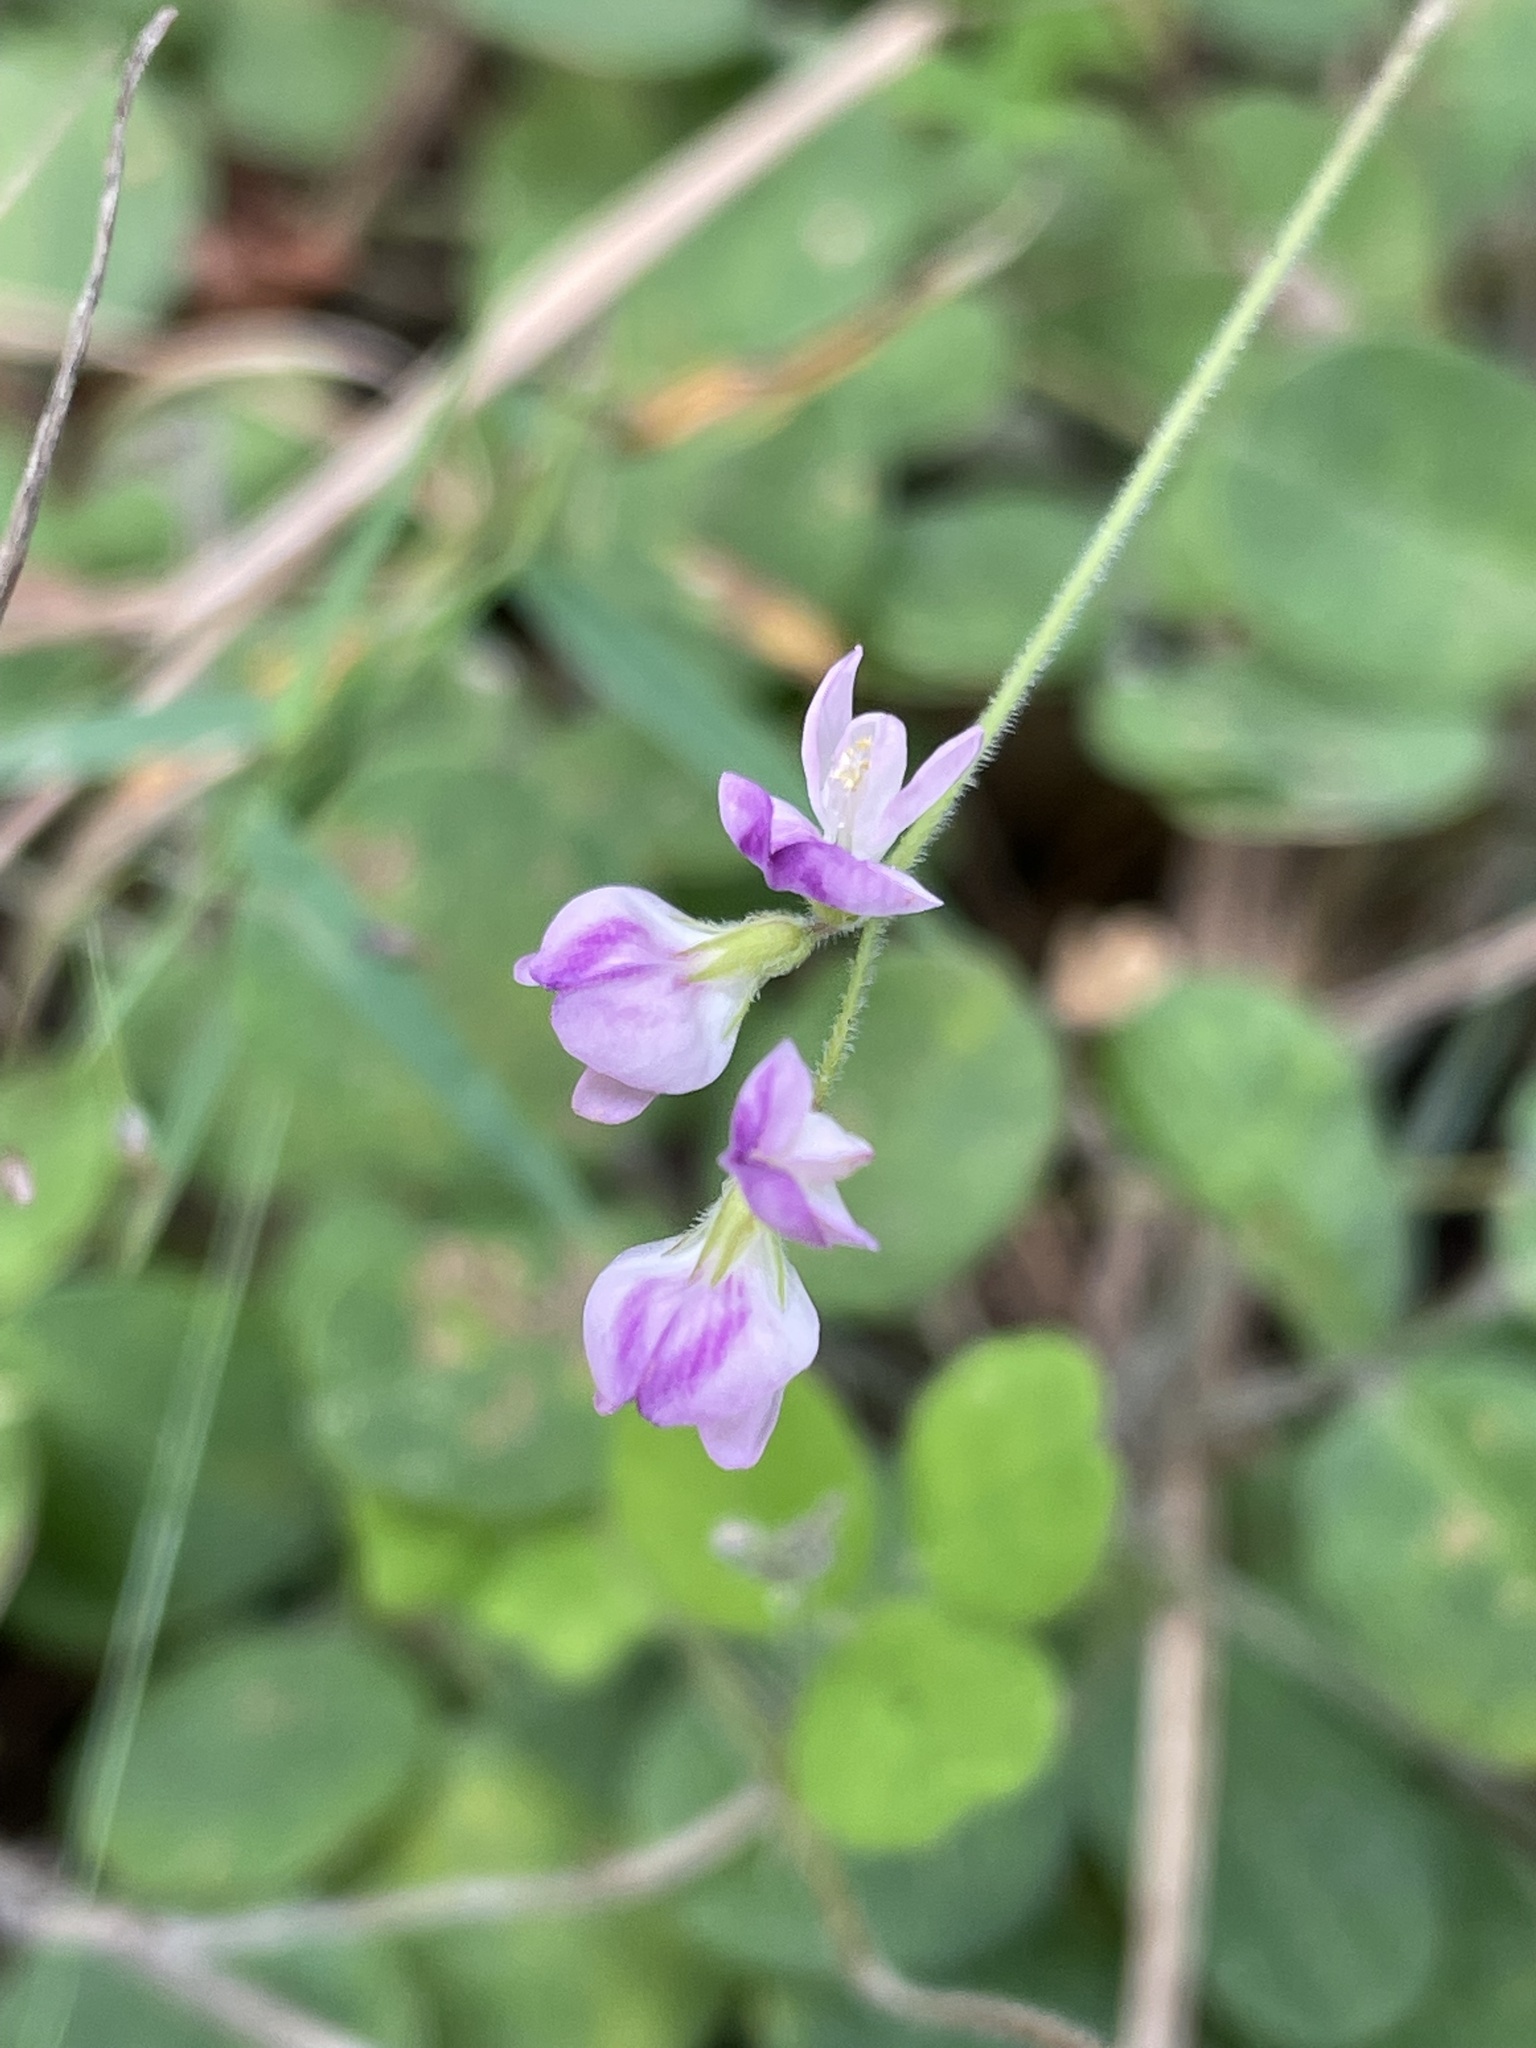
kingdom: Plantae
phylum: Tracheophyta
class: Magnoliopsida
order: Fabales
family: Fabaceae
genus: Lespedeza
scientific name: Lespedeza procumbens
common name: Downy trailing bush-clover
